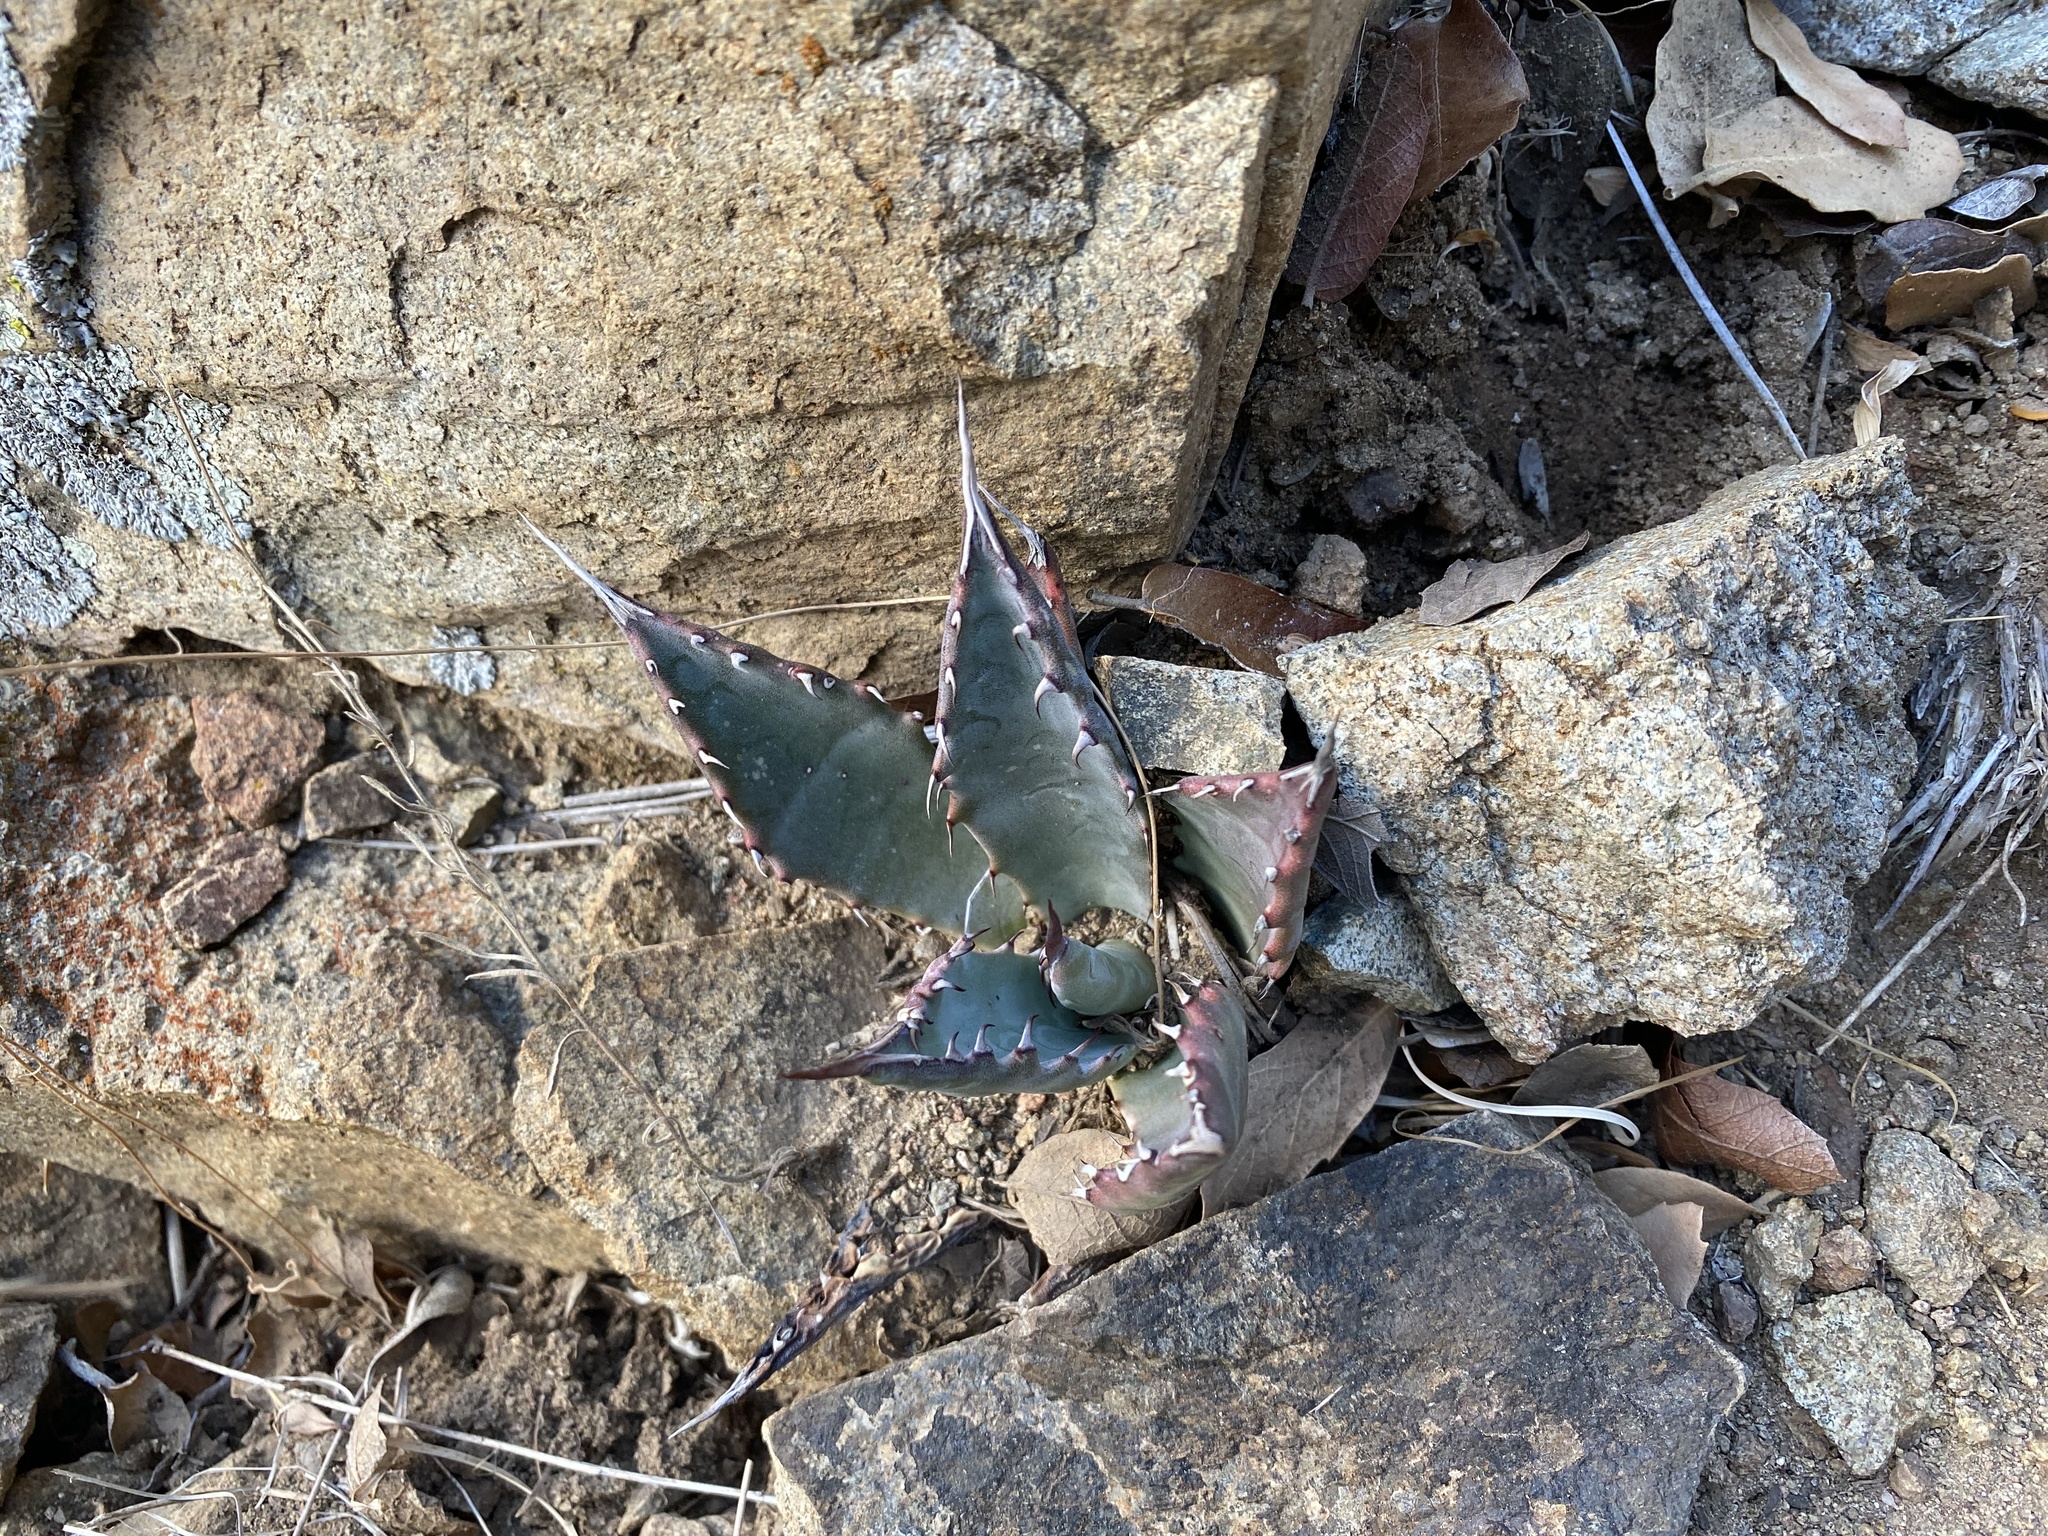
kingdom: Plantae
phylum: Tracheophyta
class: Liliopsida
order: Asparagales
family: Asparagaceae
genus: Agave
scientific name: Agave palmeri
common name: Palmer agave
